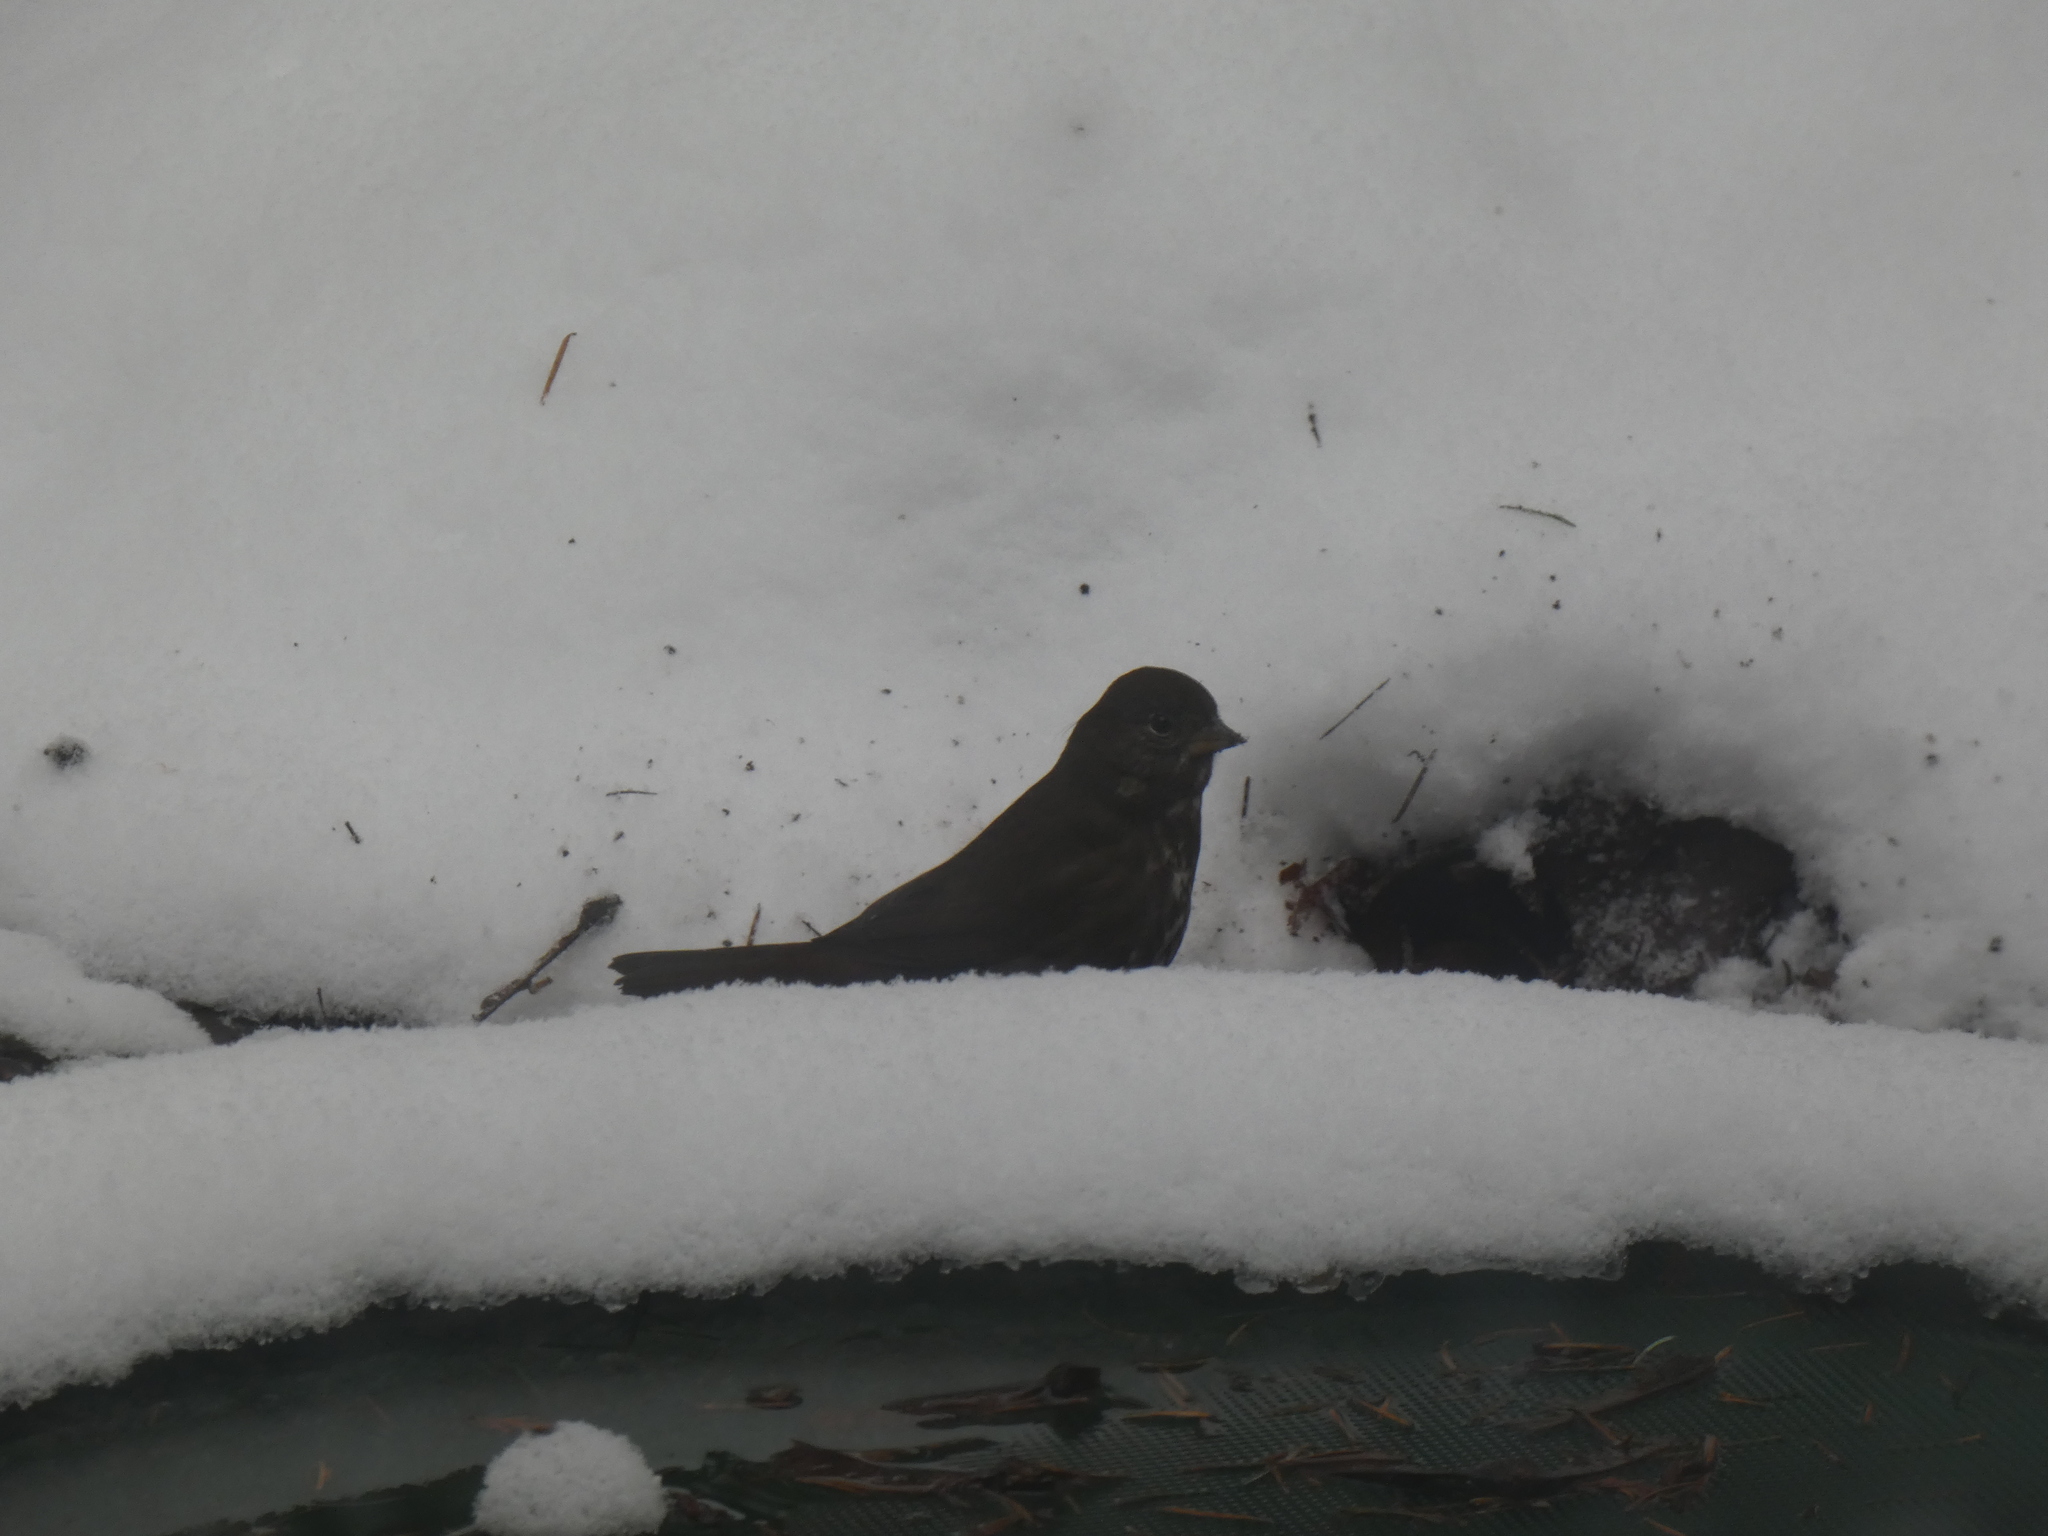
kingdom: Animalia
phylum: Chordata
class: Aves
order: Passeriformes
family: Passerellidae
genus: Passerella
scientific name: Passerella iliaca
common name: Fox sparrow
